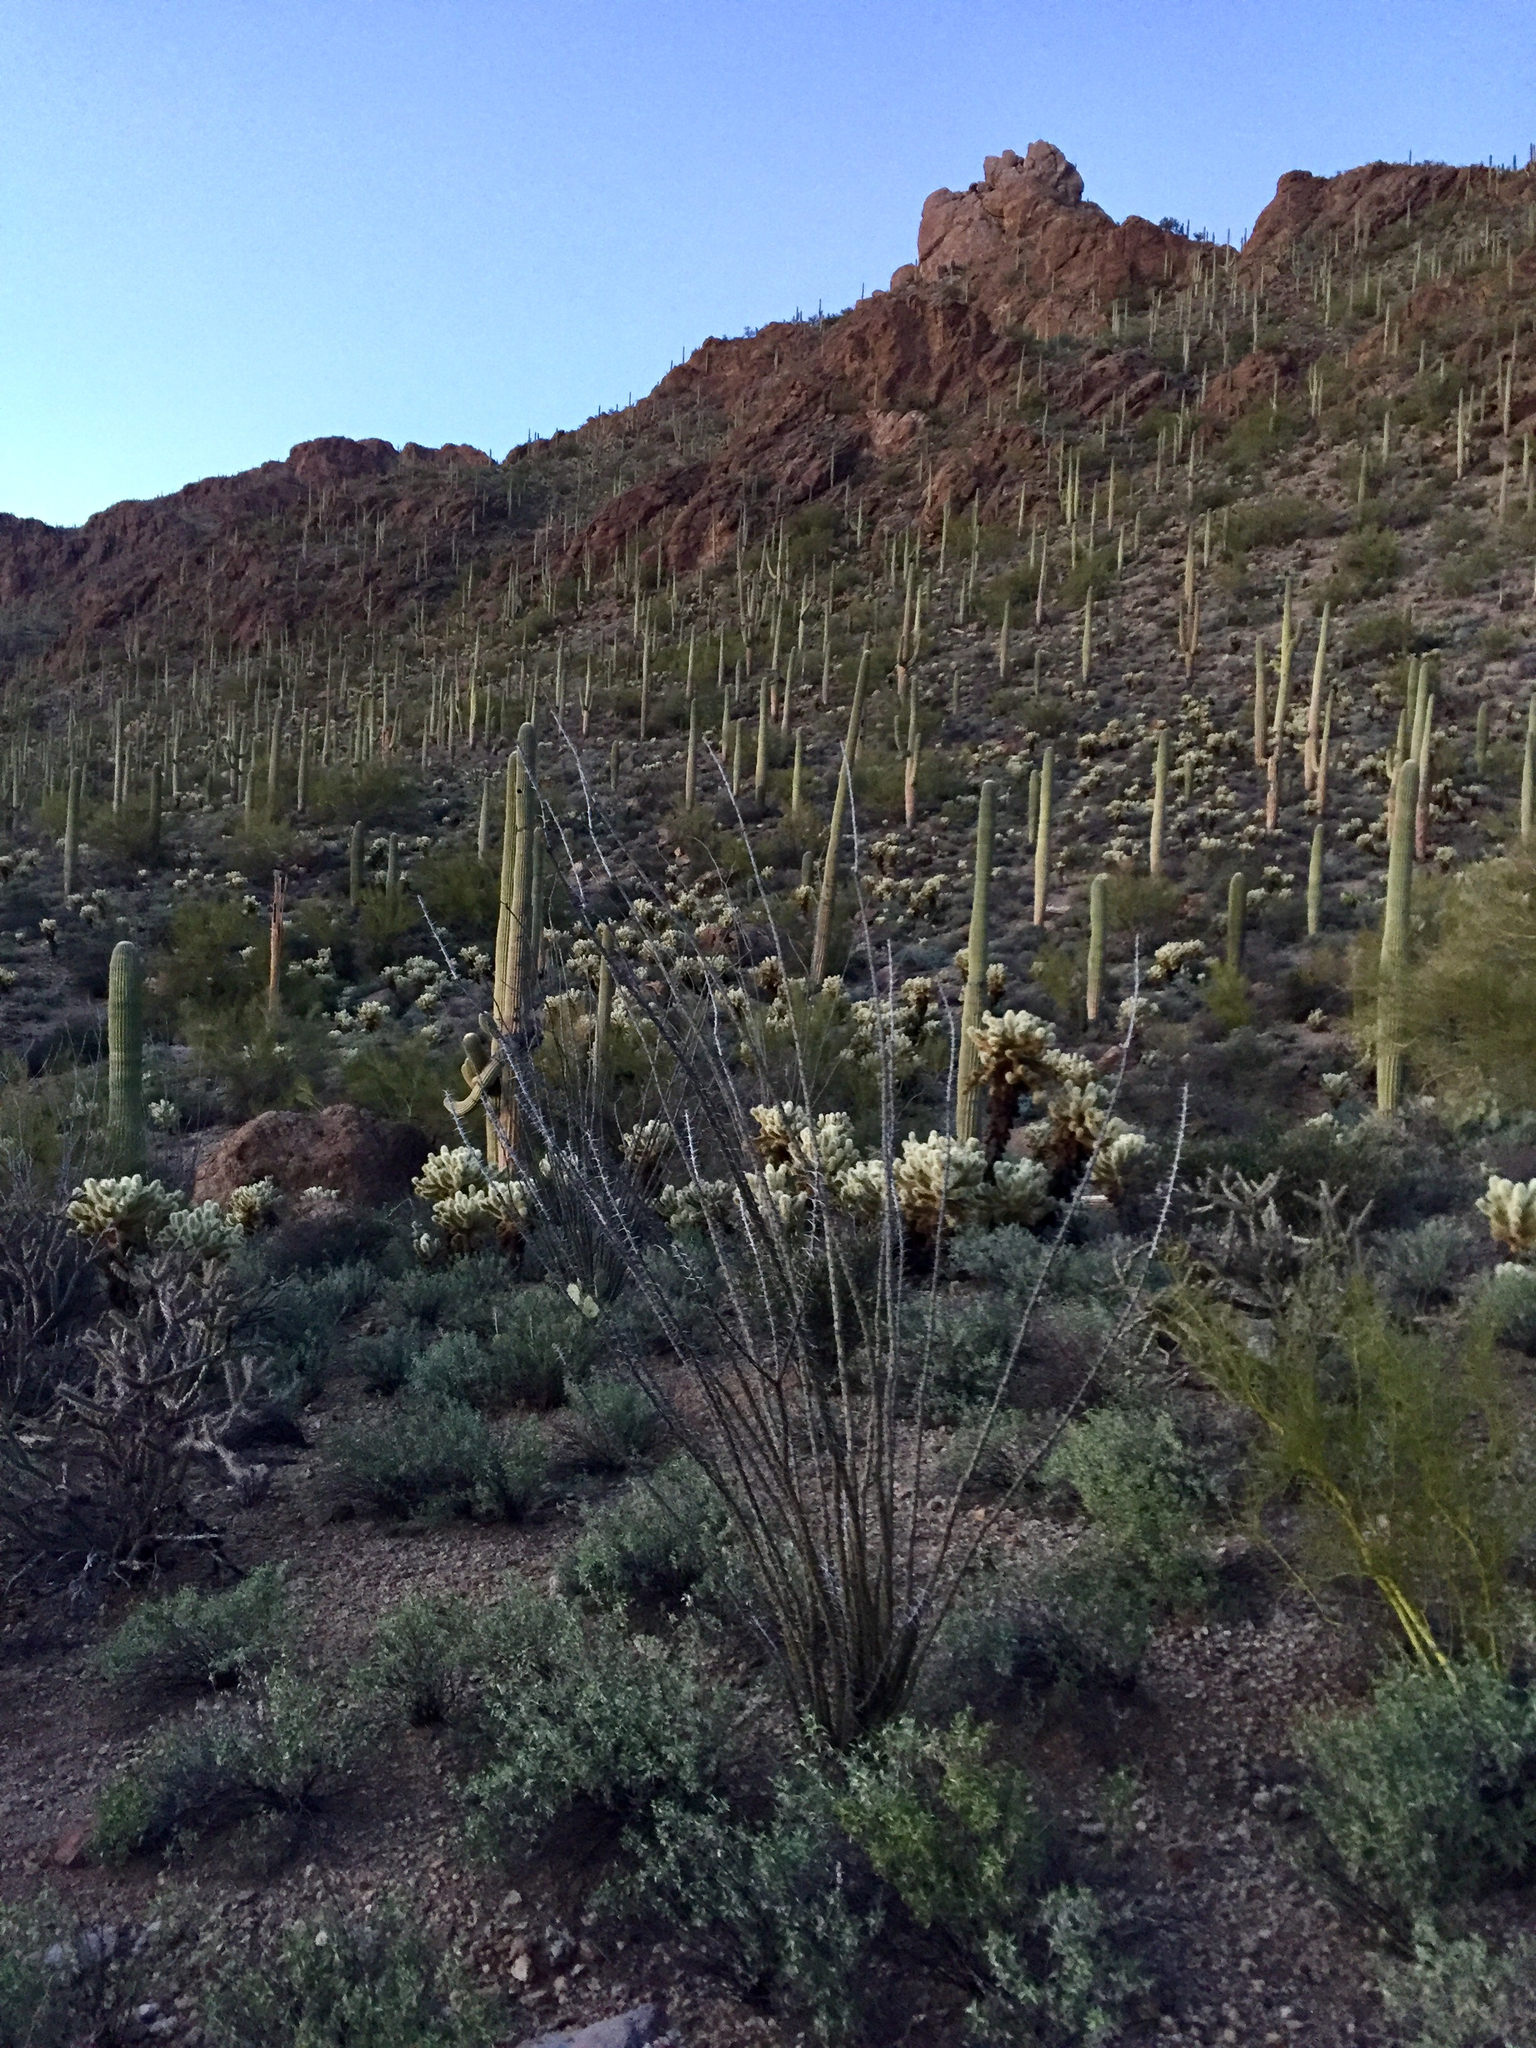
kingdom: Plantae
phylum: Tracheophyta
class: Magnoliopsida
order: Ericales
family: Fouquieriaceae
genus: Fouquieria
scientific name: Fouquieria splendens
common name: Vine-cactus
